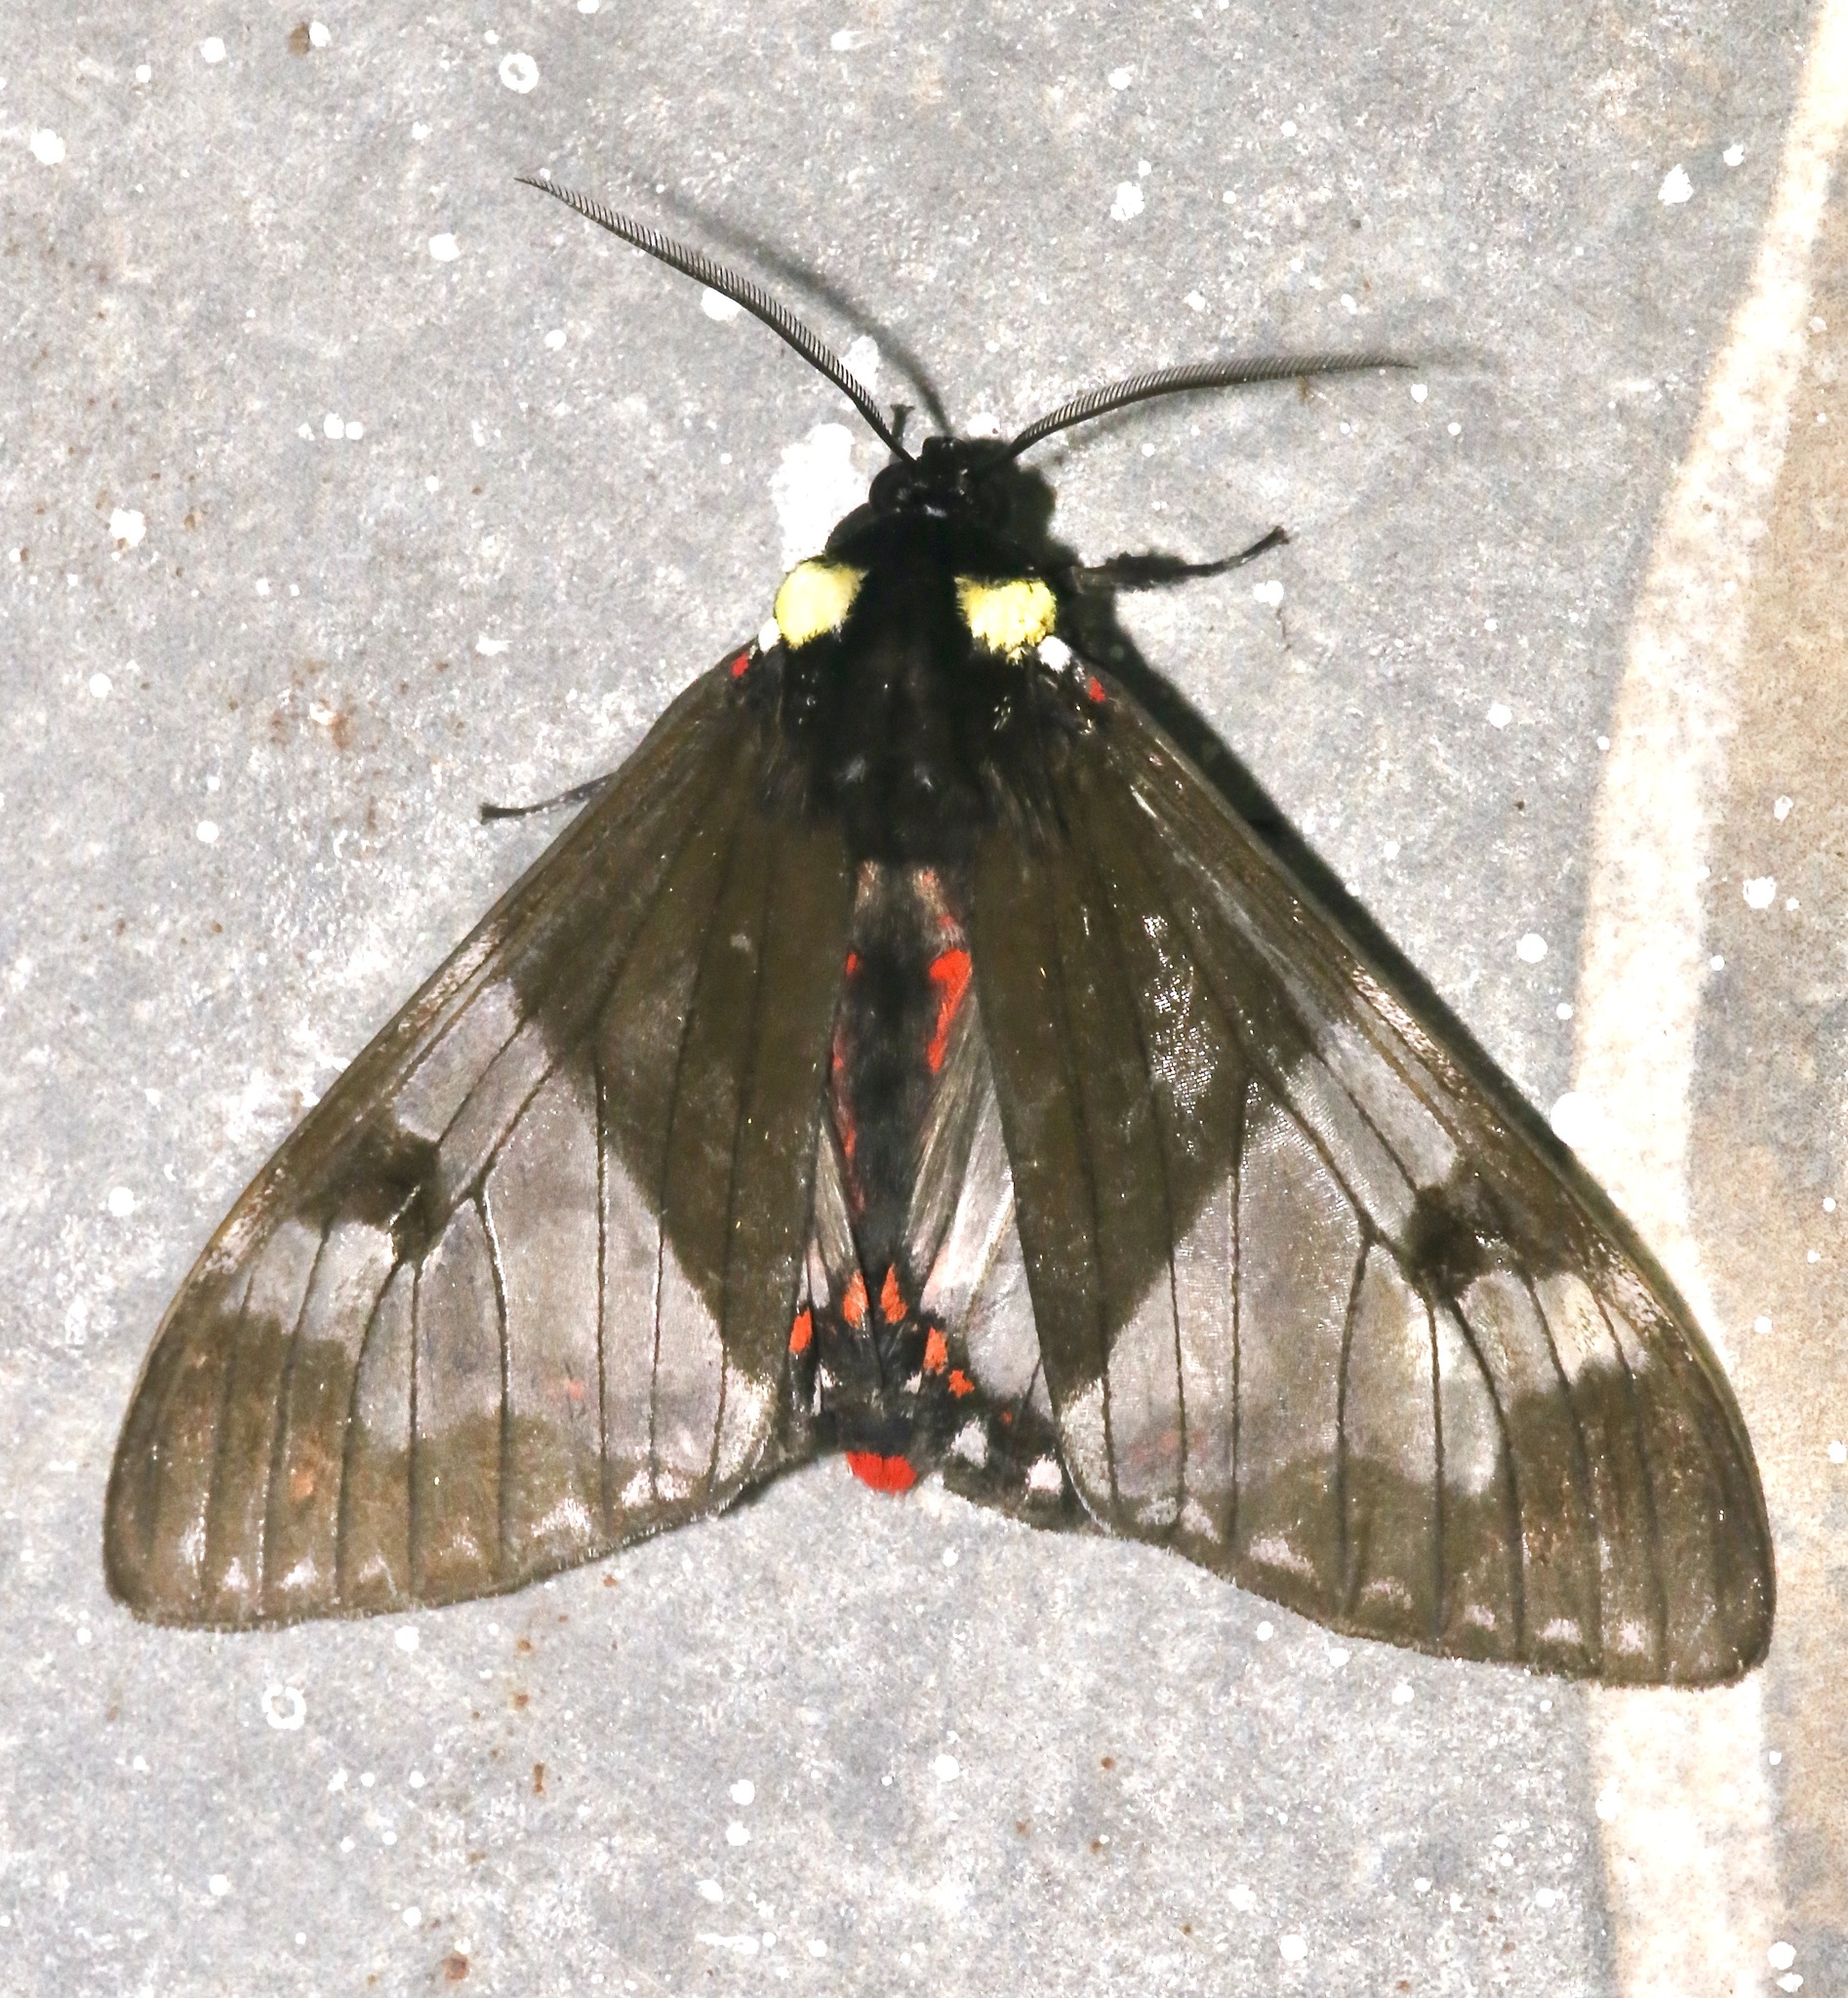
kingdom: Animalia
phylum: Arthropoda
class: Insecta
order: Lepidoptera
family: Erebidae
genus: Dysschema
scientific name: Dysschema marginalis
